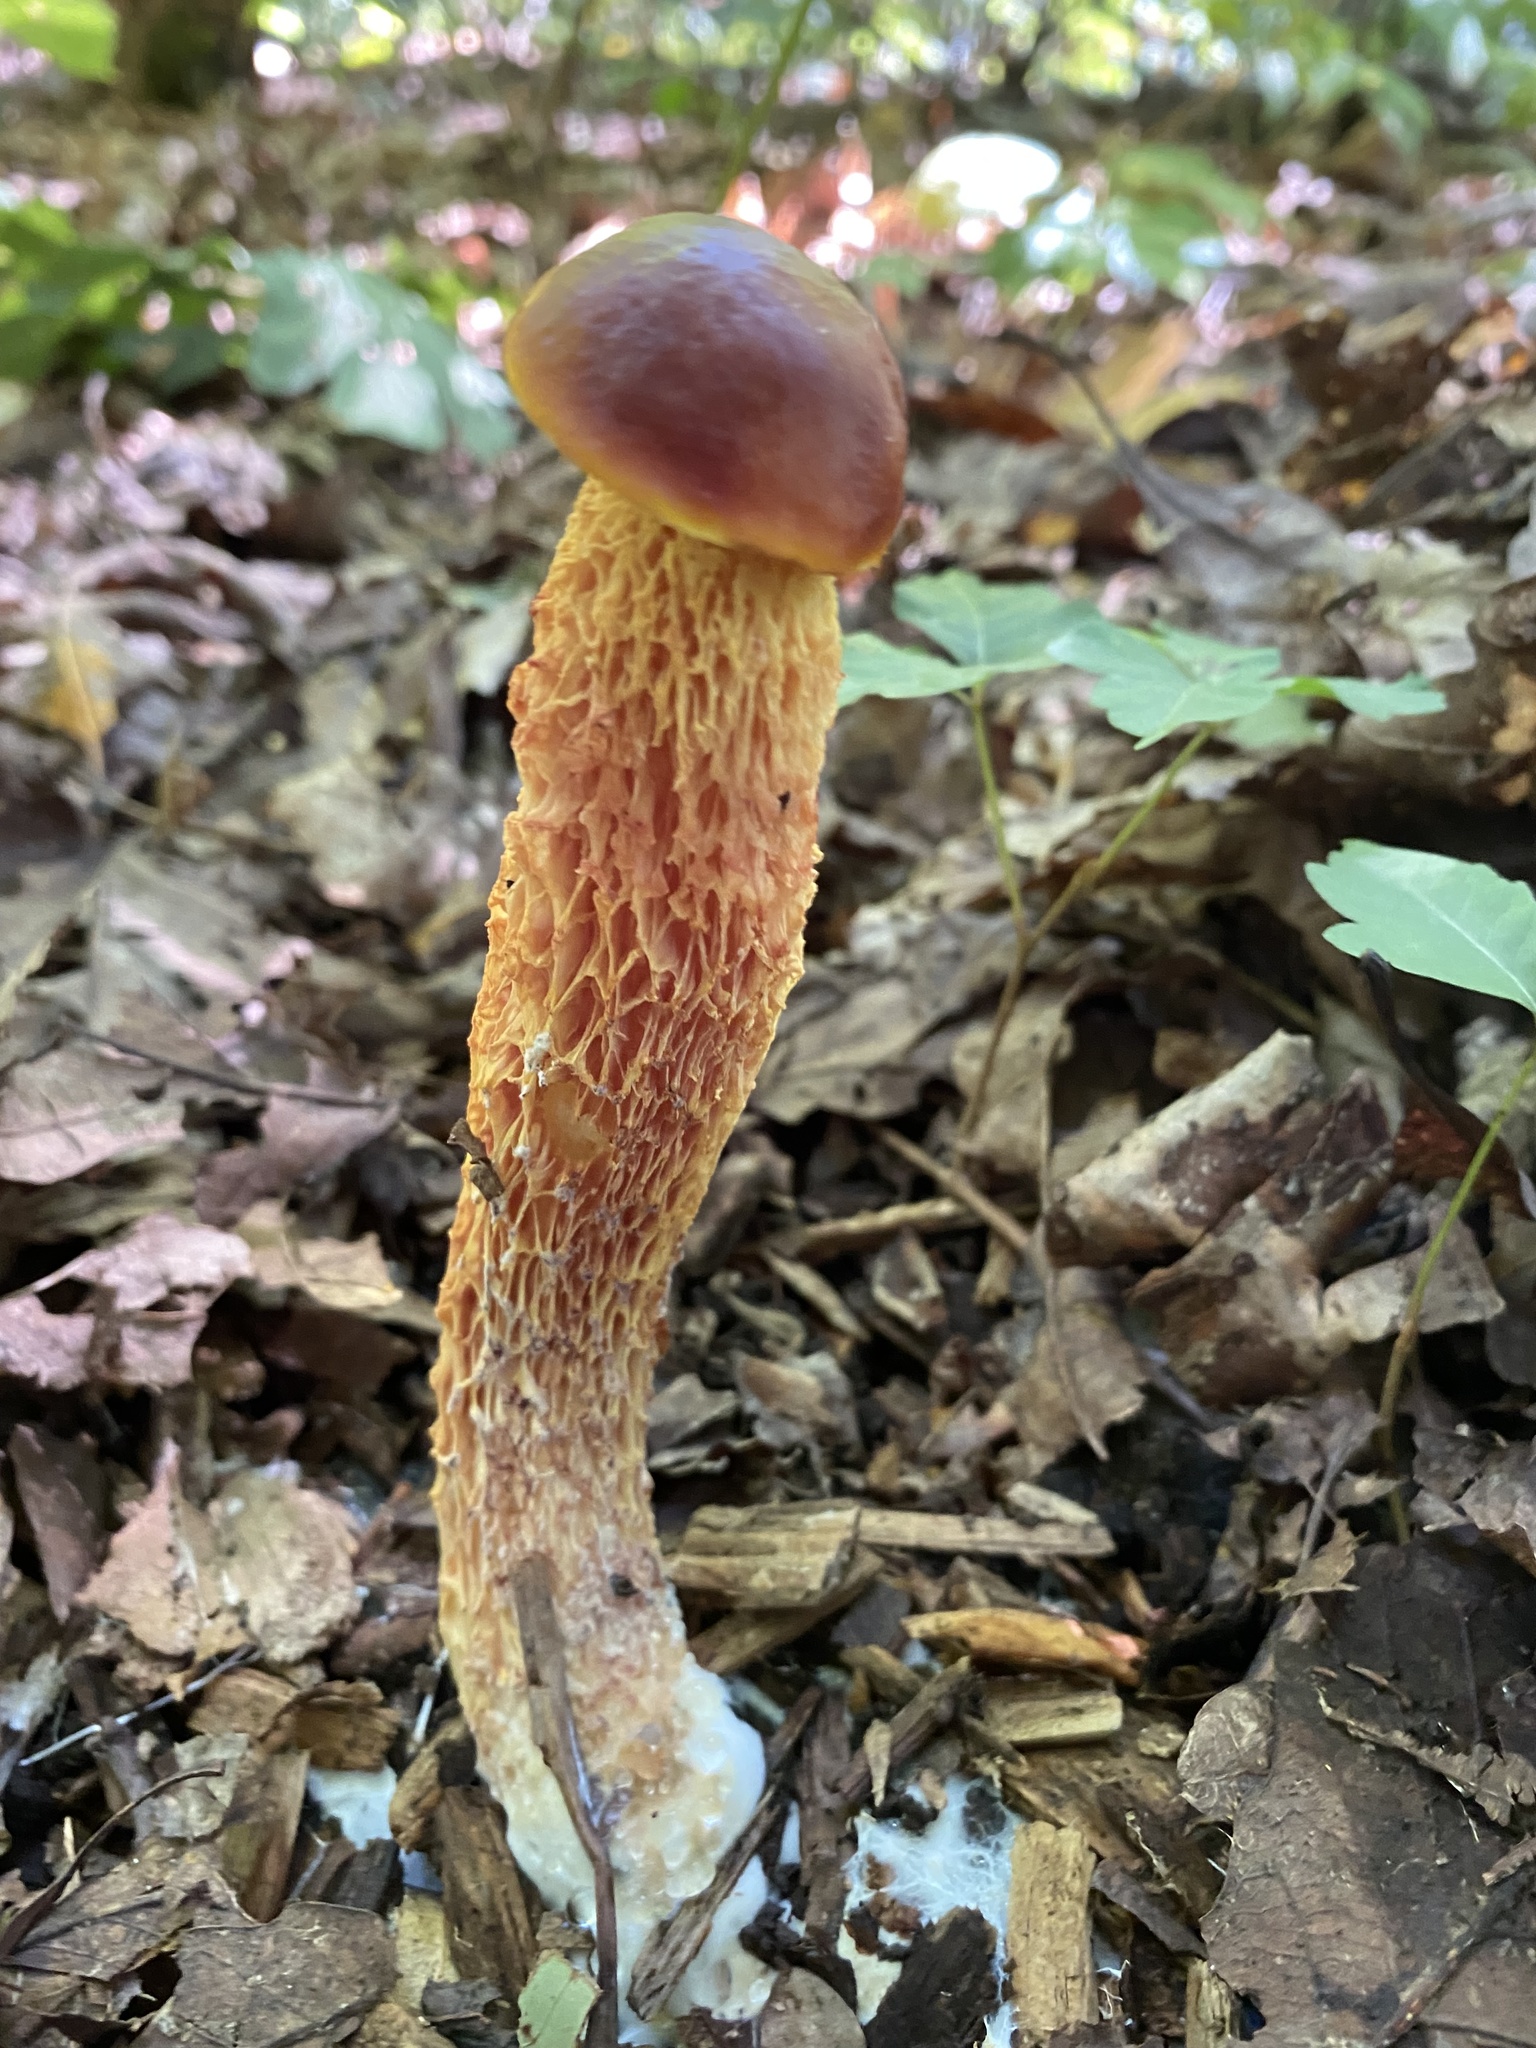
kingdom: Fungi
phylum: Basidiomycota
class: Agaricomycetes
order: Boletales
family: Boletaceae
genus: Aureoboletus
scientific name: Aureoboletus betula
